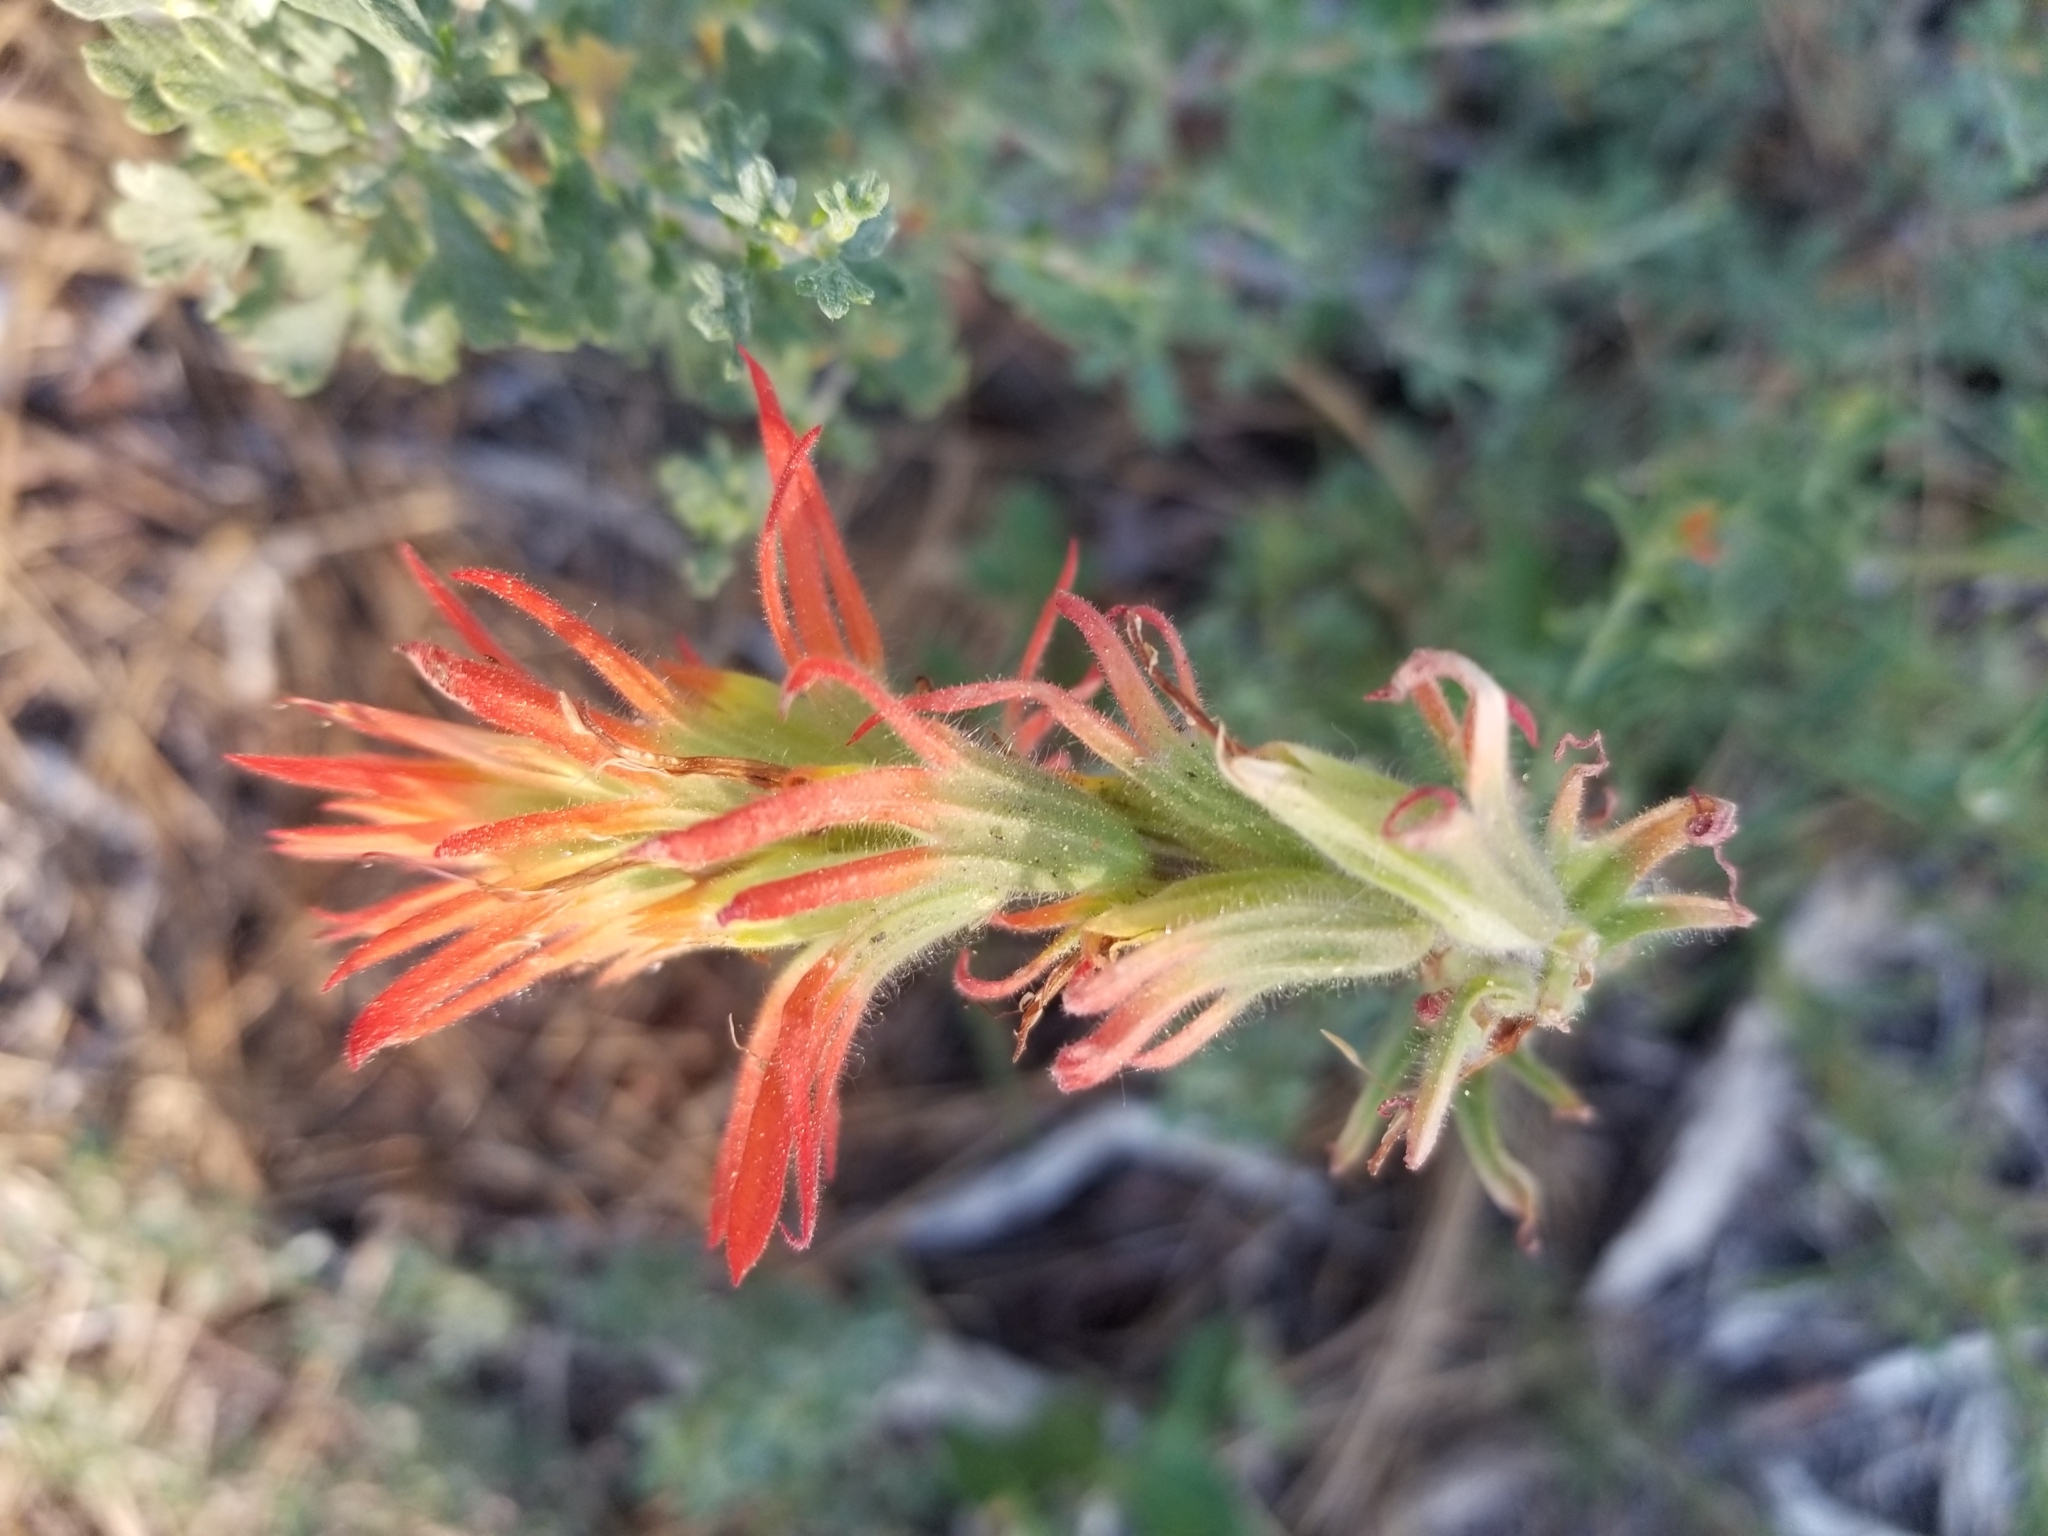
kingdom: Plantae
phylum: Tracheophyta
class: Magnoliopsida
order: Lamiales
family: Orobanchaceae
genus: Castilleja
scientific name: Castilleja applegatei
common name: Wavy-leaf paintbrush
